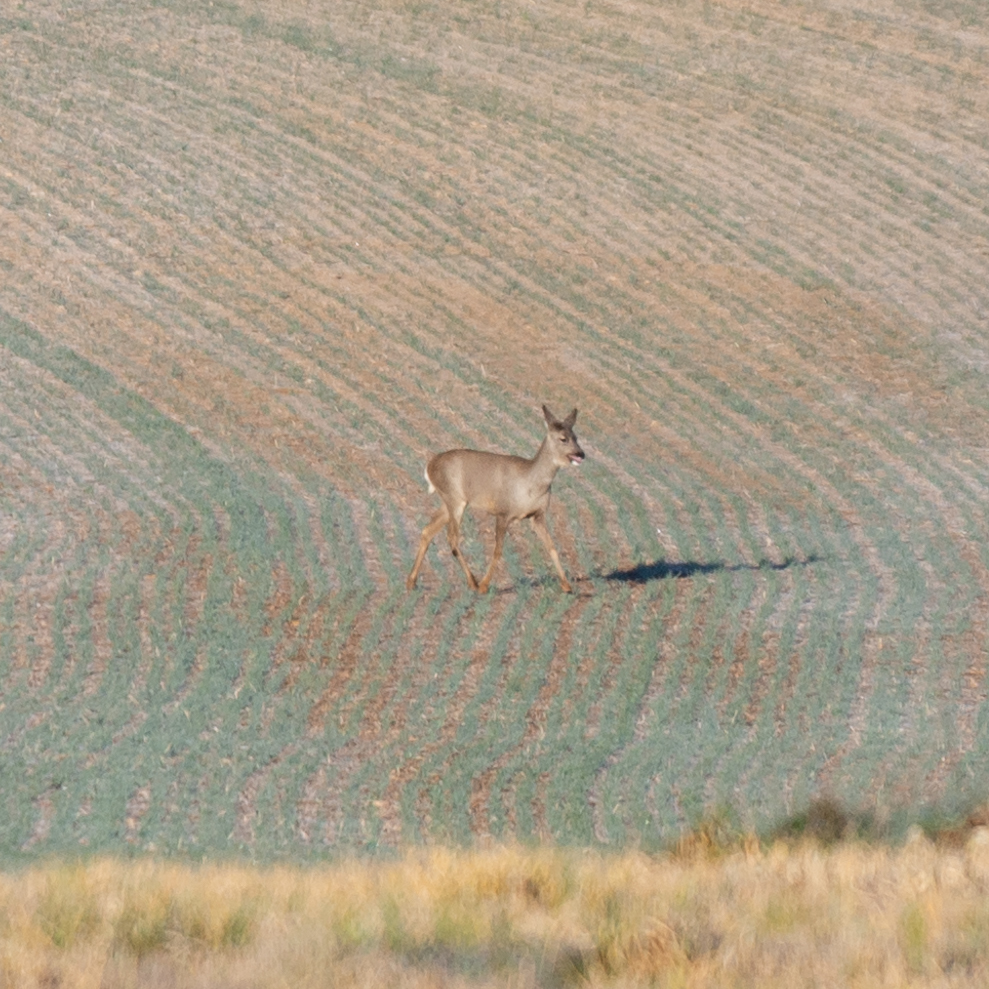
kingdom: Animalia
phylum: Chordata
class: Mammalia
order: Artiodactyla
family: Cervidae
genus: Capreolus
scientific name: Capreolus capreolus
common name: Western roe deer
